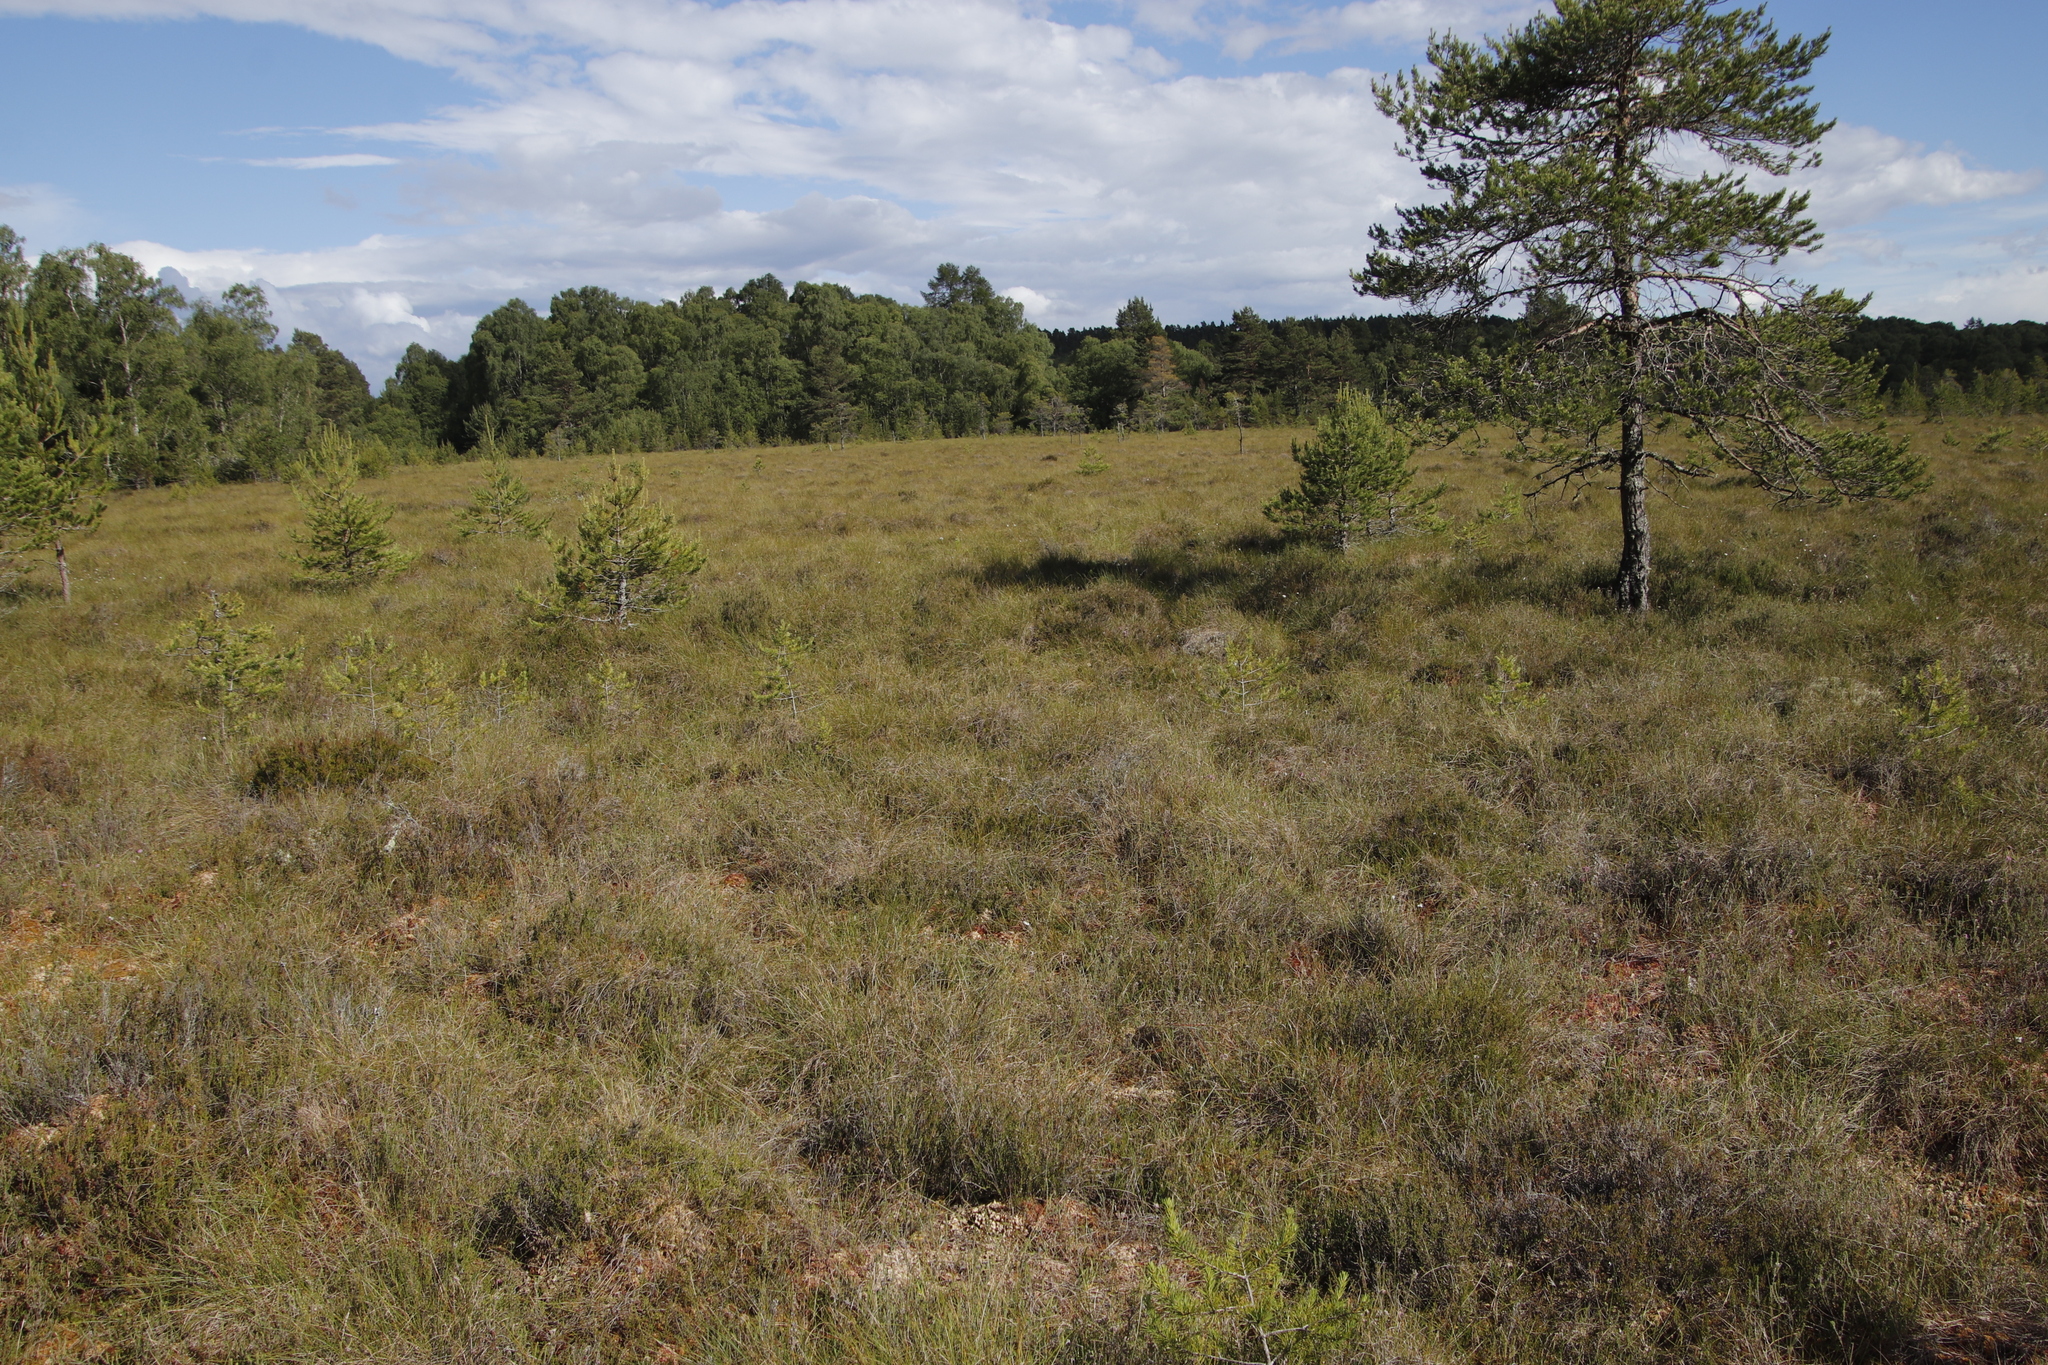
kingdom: Plantae
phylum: Tracheophyta
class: Magnoliopsida
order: Ericales
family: Ericaceae
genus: Calluna
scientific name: Calluna vulgaris
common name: Heather
